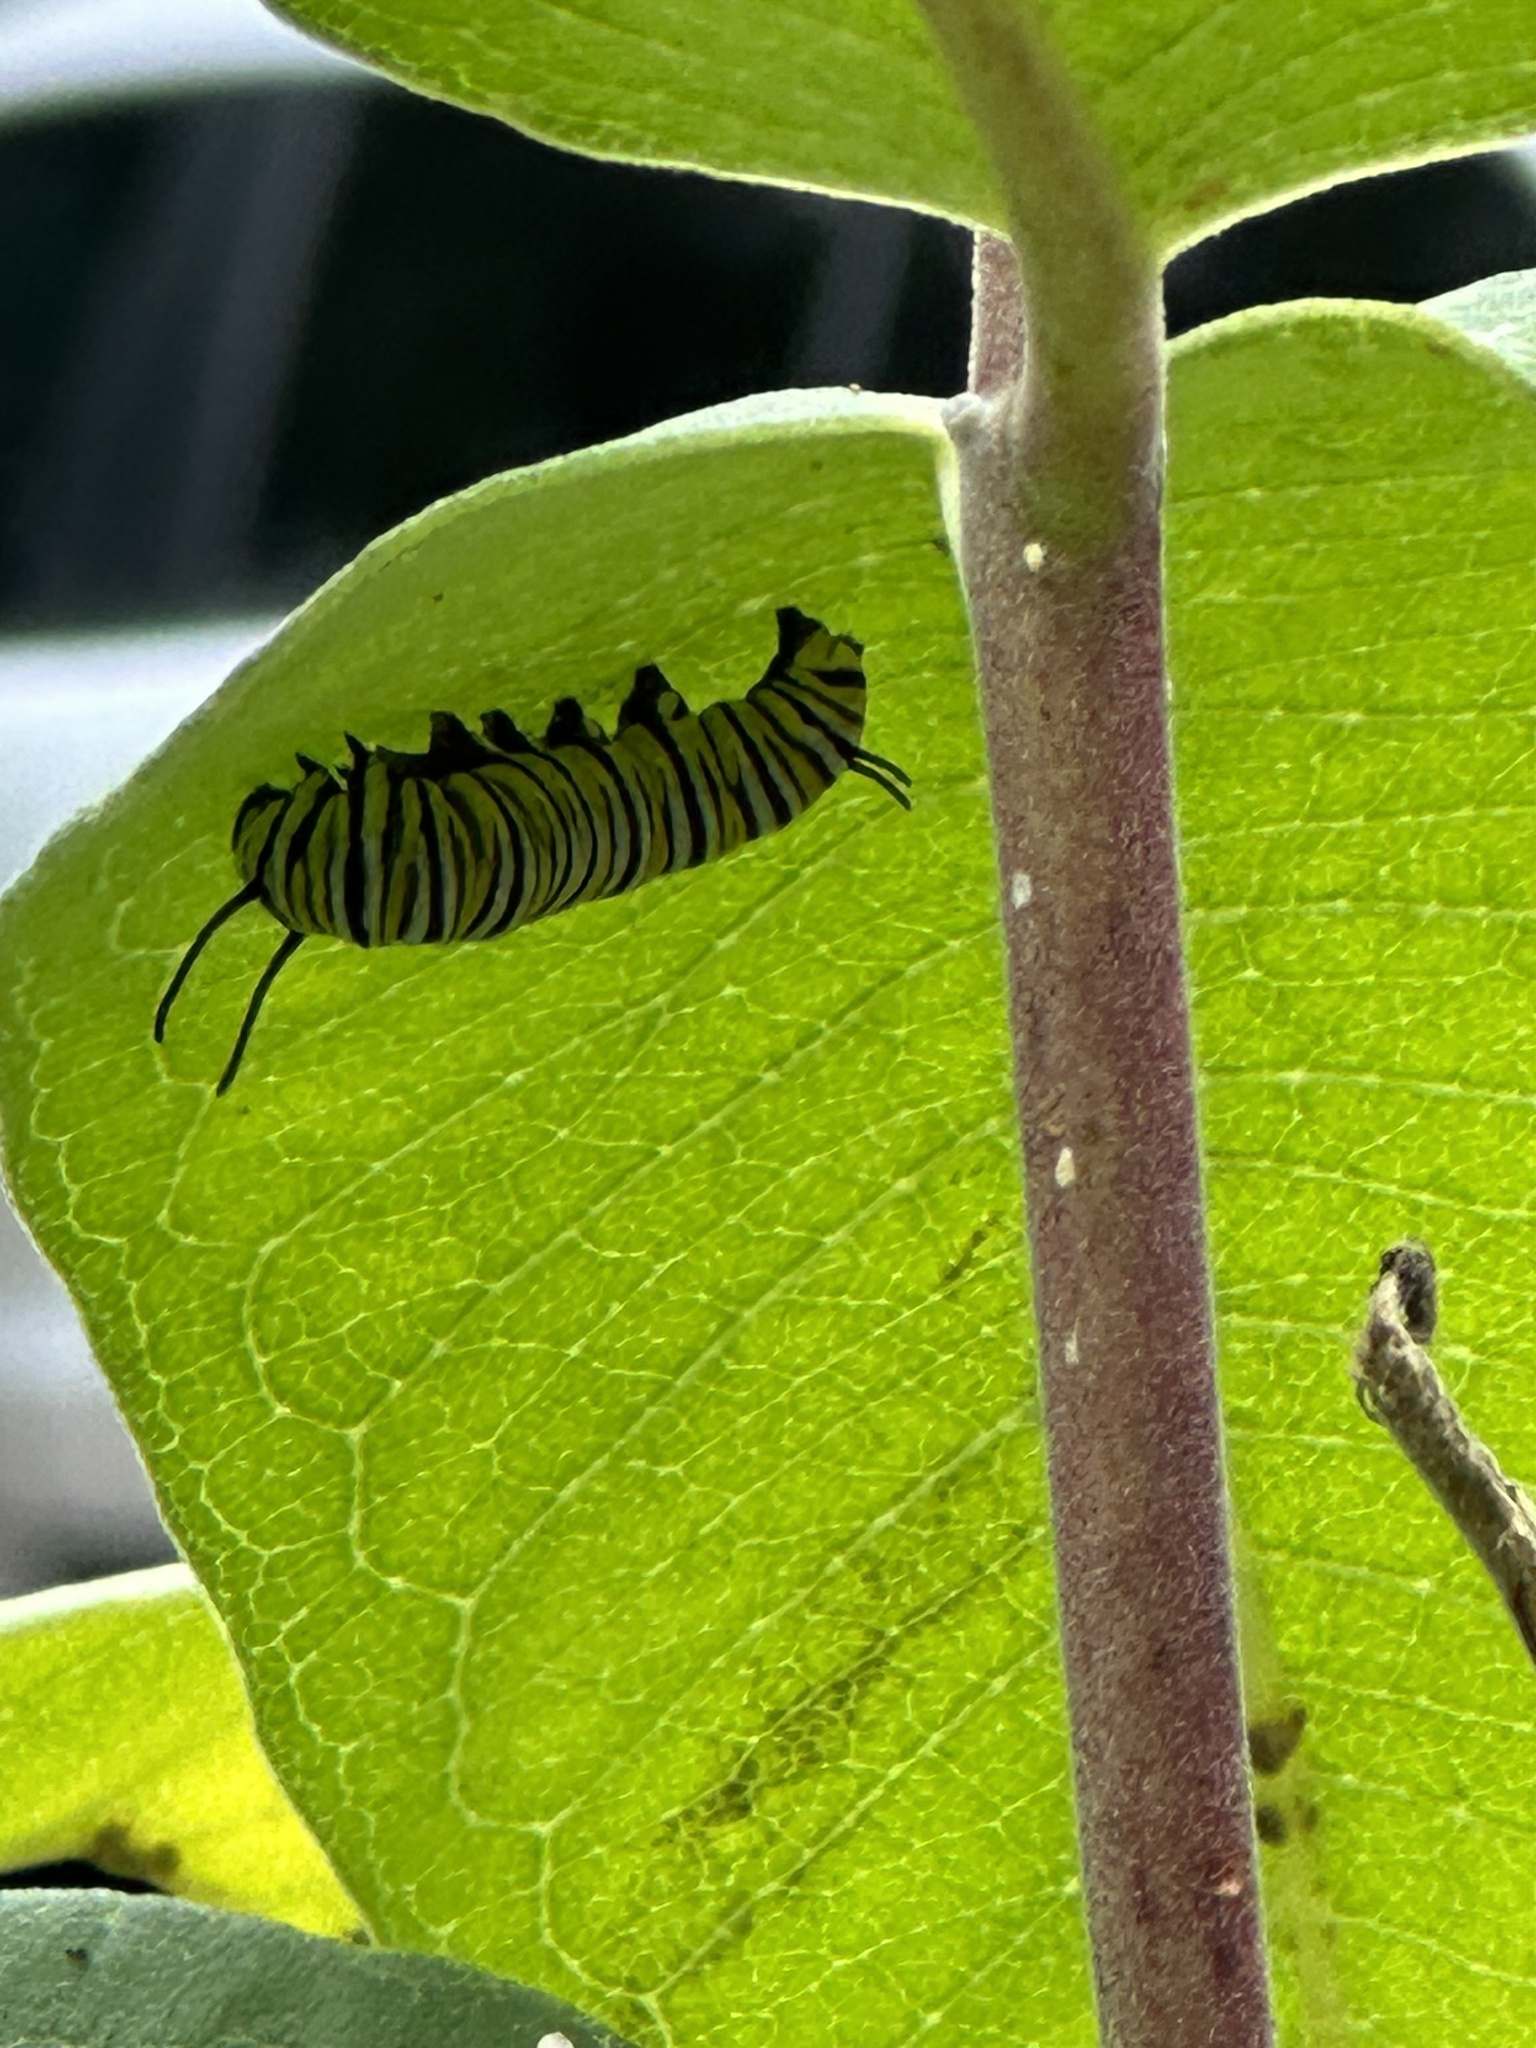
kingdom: Animalia
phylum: Arthropoda
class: Insecta
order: Lepidoptera
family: Nymphalidae
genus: Danaus
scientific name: Danaus plexippus
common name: Monarch
